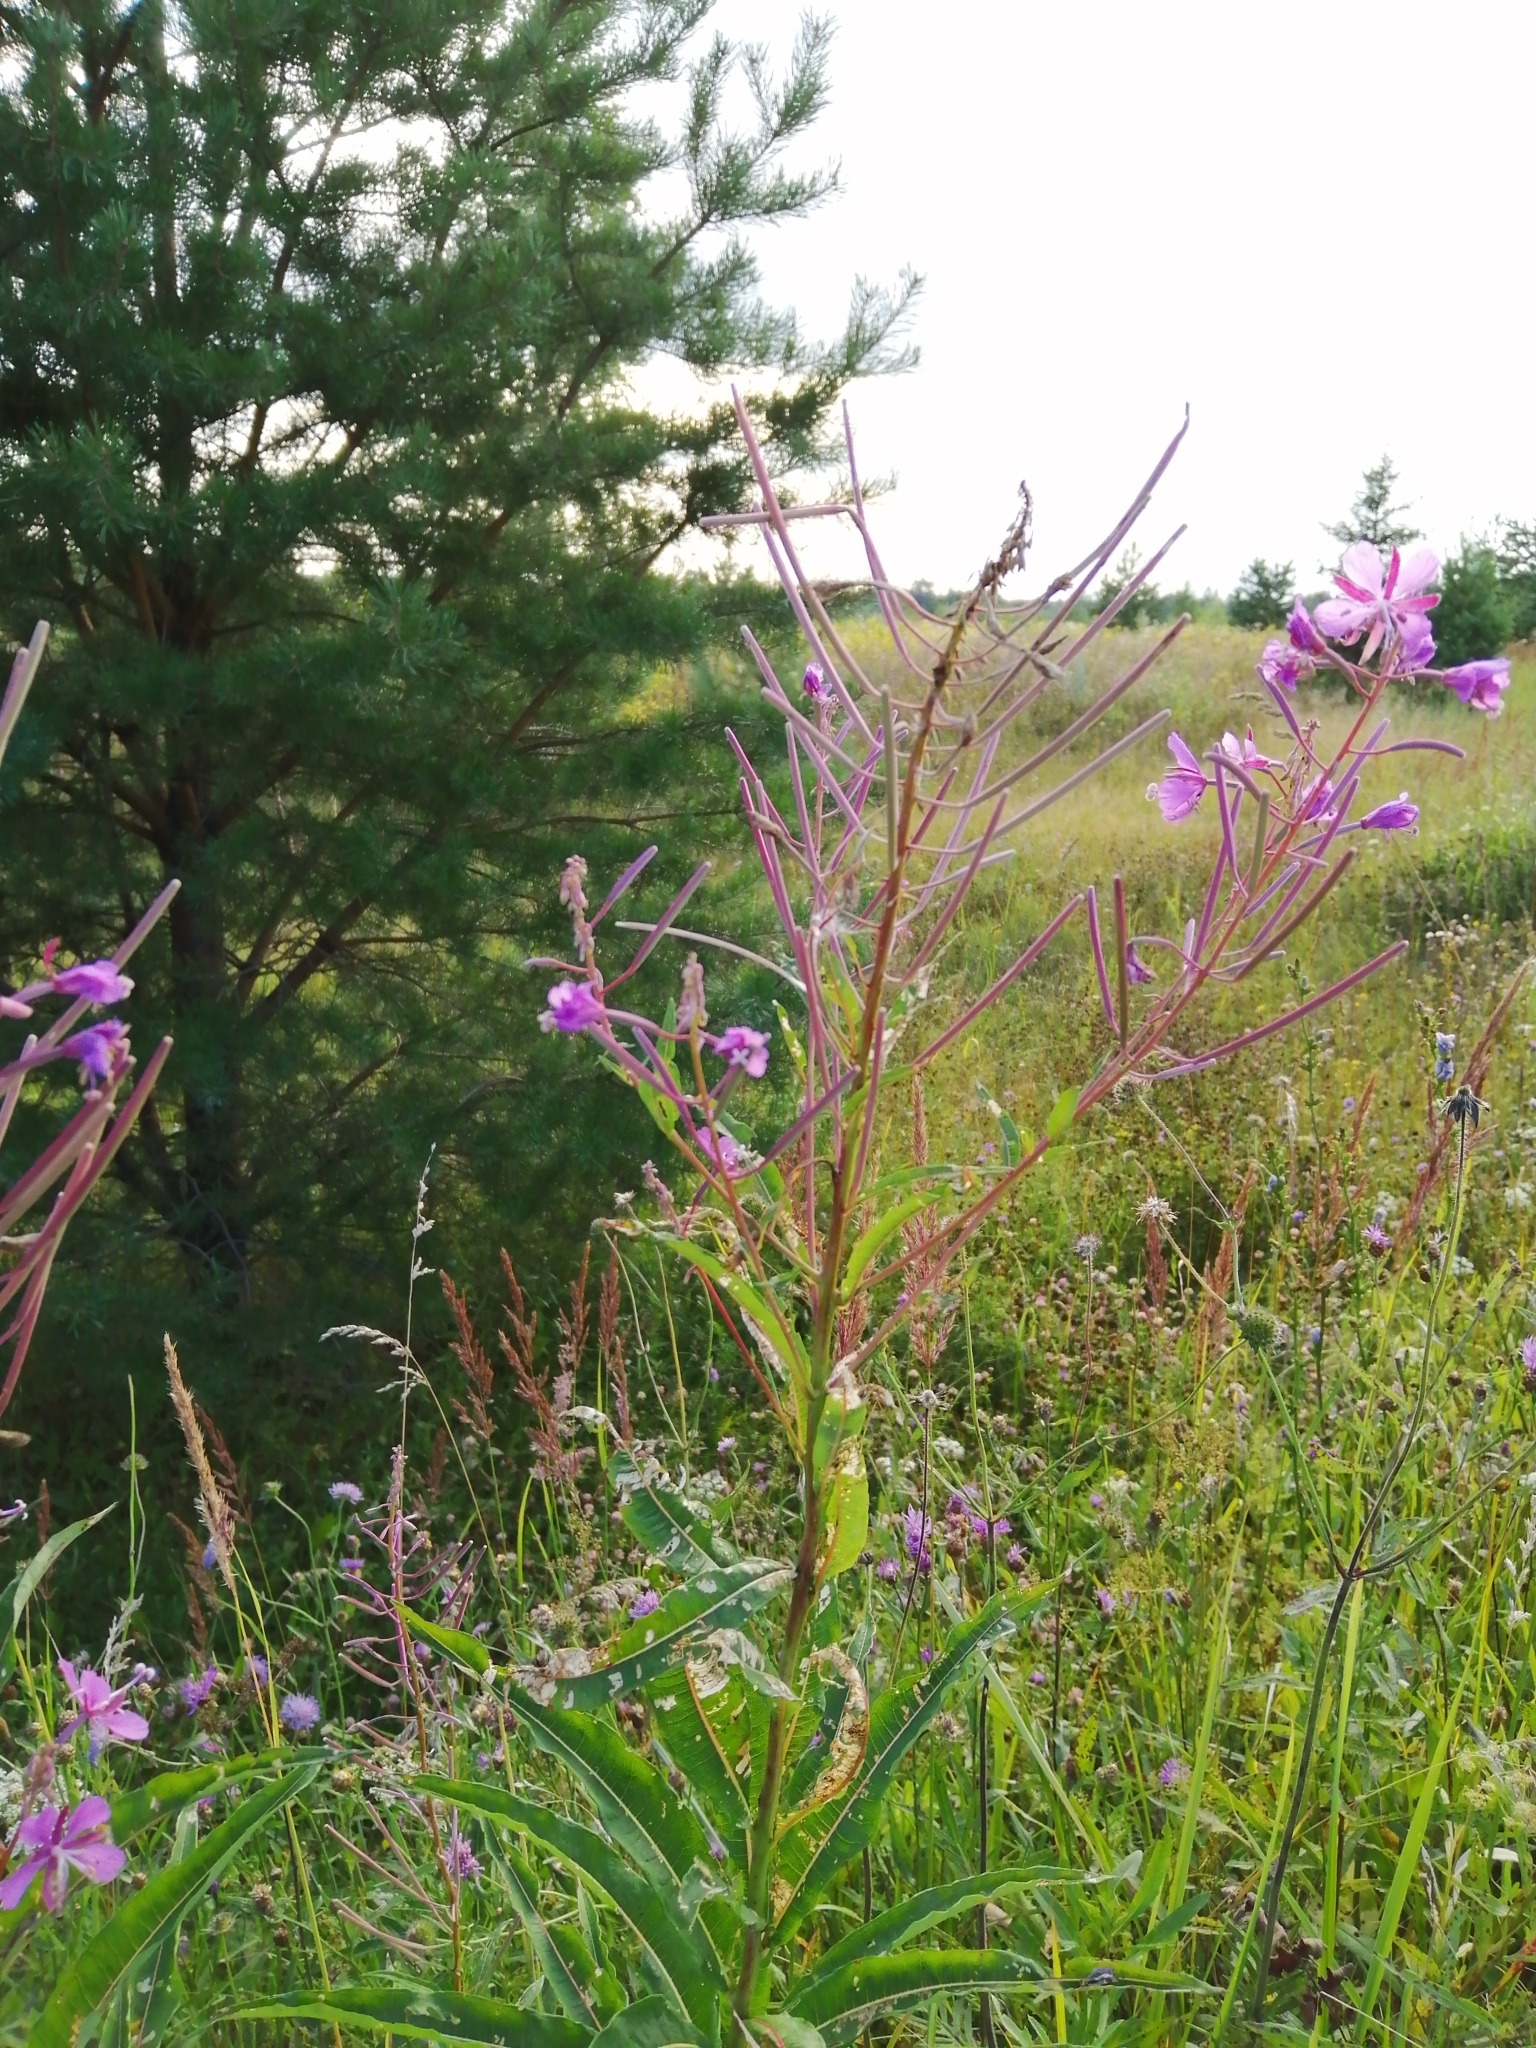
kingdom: Plantae
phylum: Tracheophyta
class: Magnoliopsida
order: Myrtales
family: Onagraceae
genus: Chamaenerion
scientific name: Chamaenerion angustifolium
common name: Fireweed
